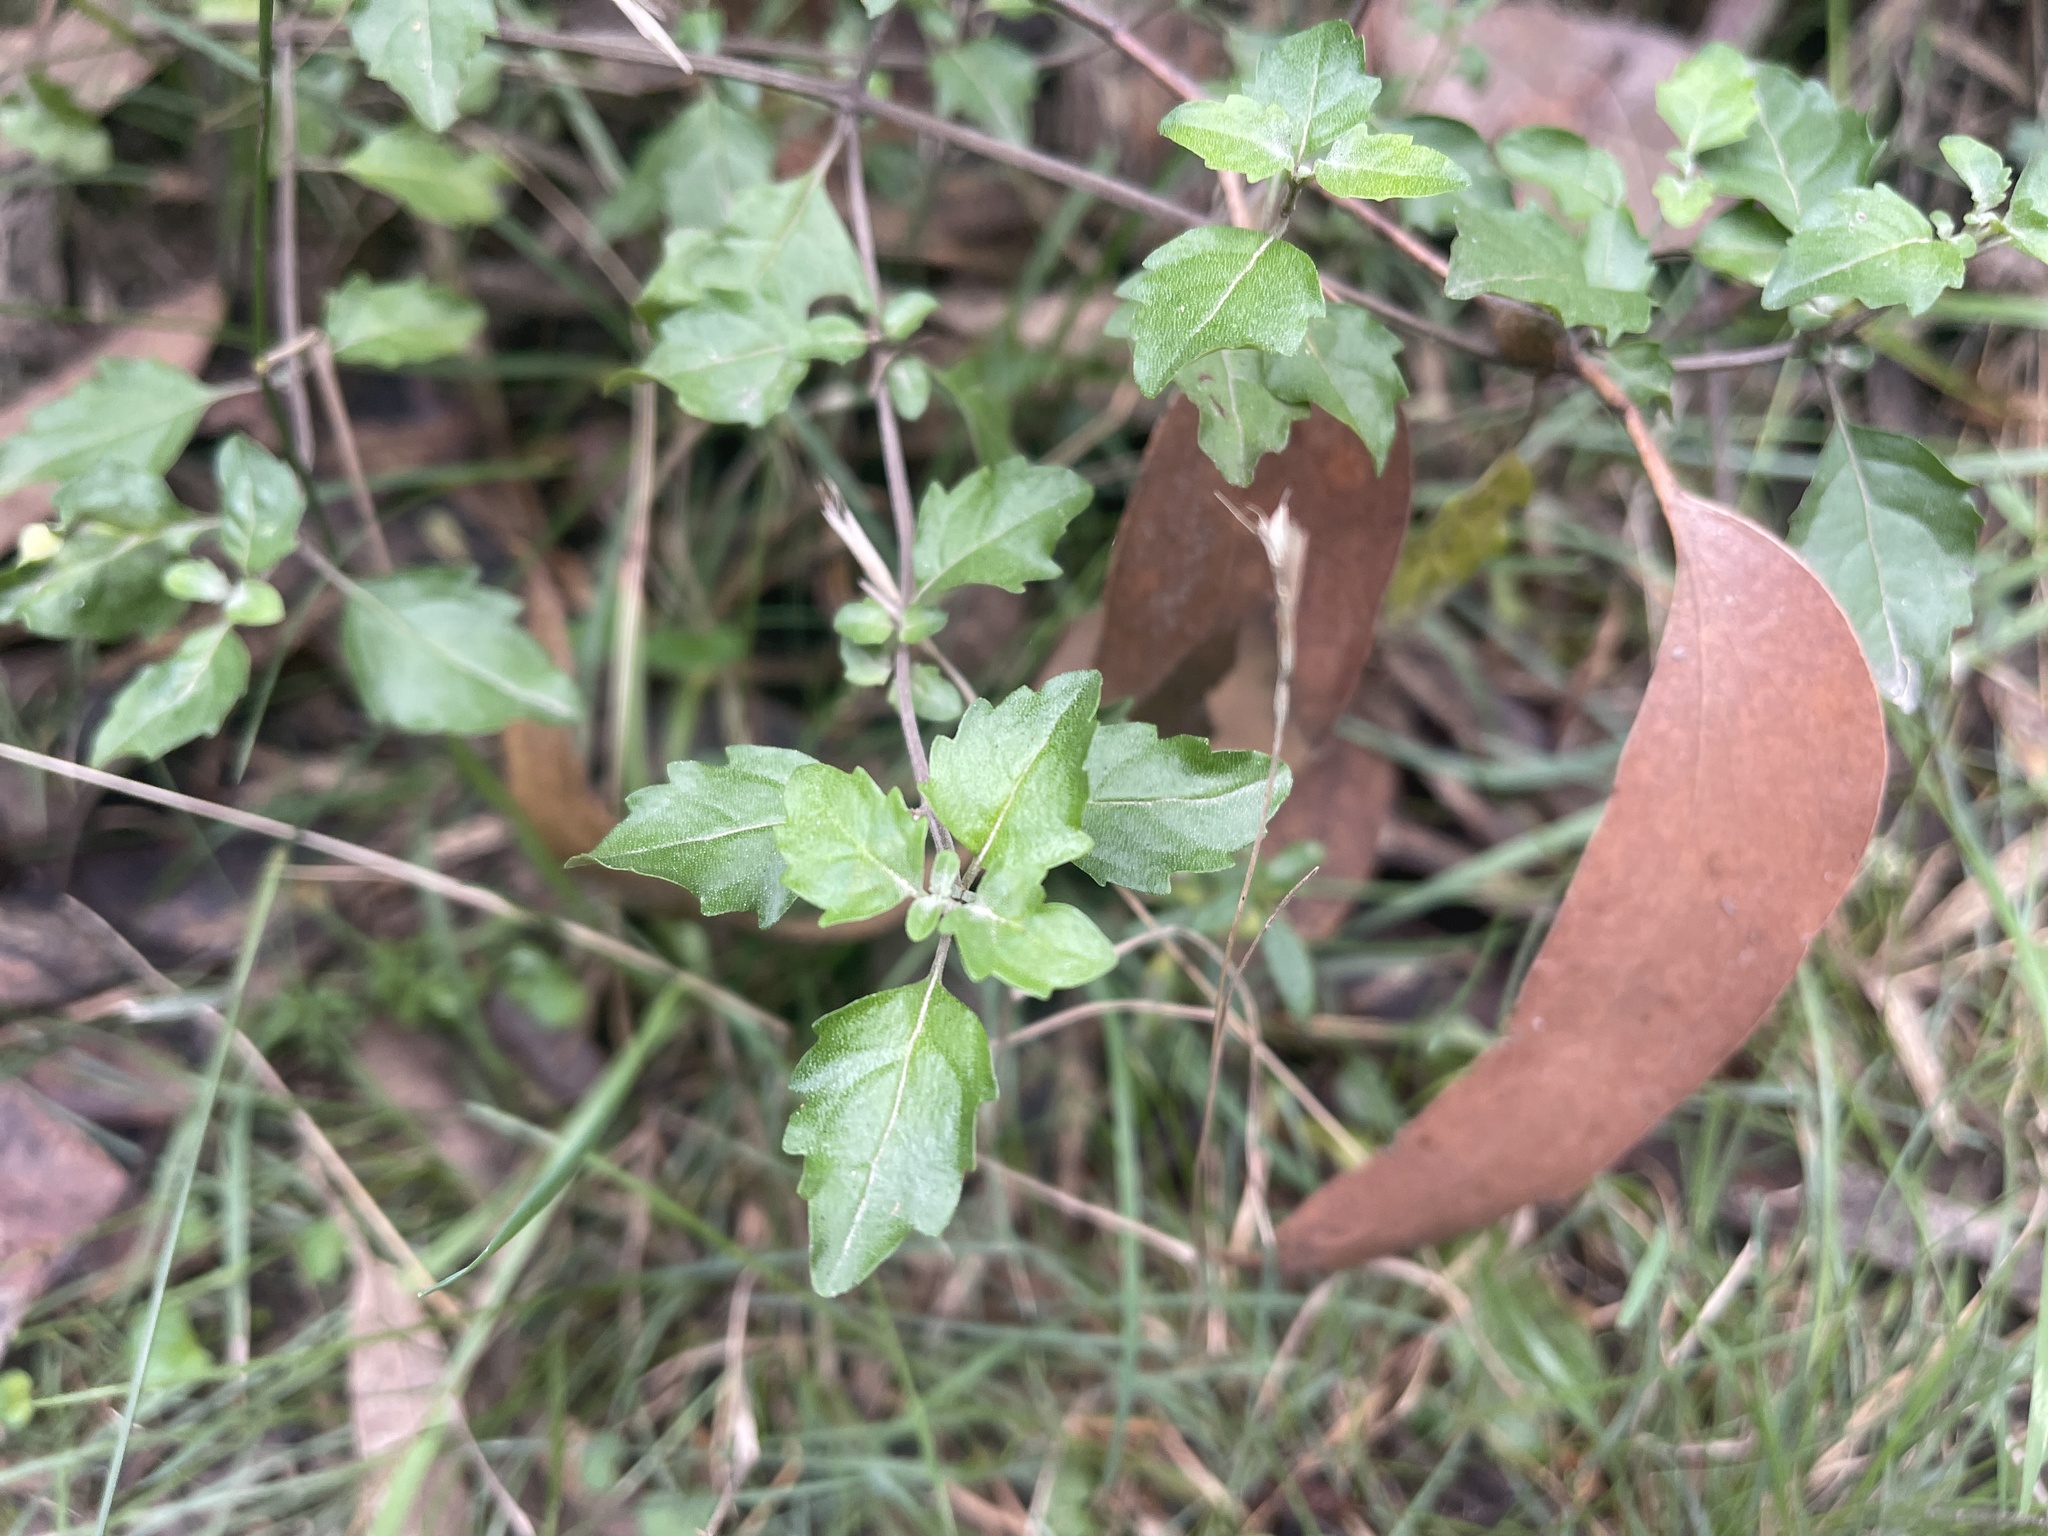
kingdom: Plantae
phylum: Tracheophyta
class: Magnoliopsida
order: Lamiales
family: Lamiaceae
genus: Prostanthera
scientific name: Prostanthera melissifolia
